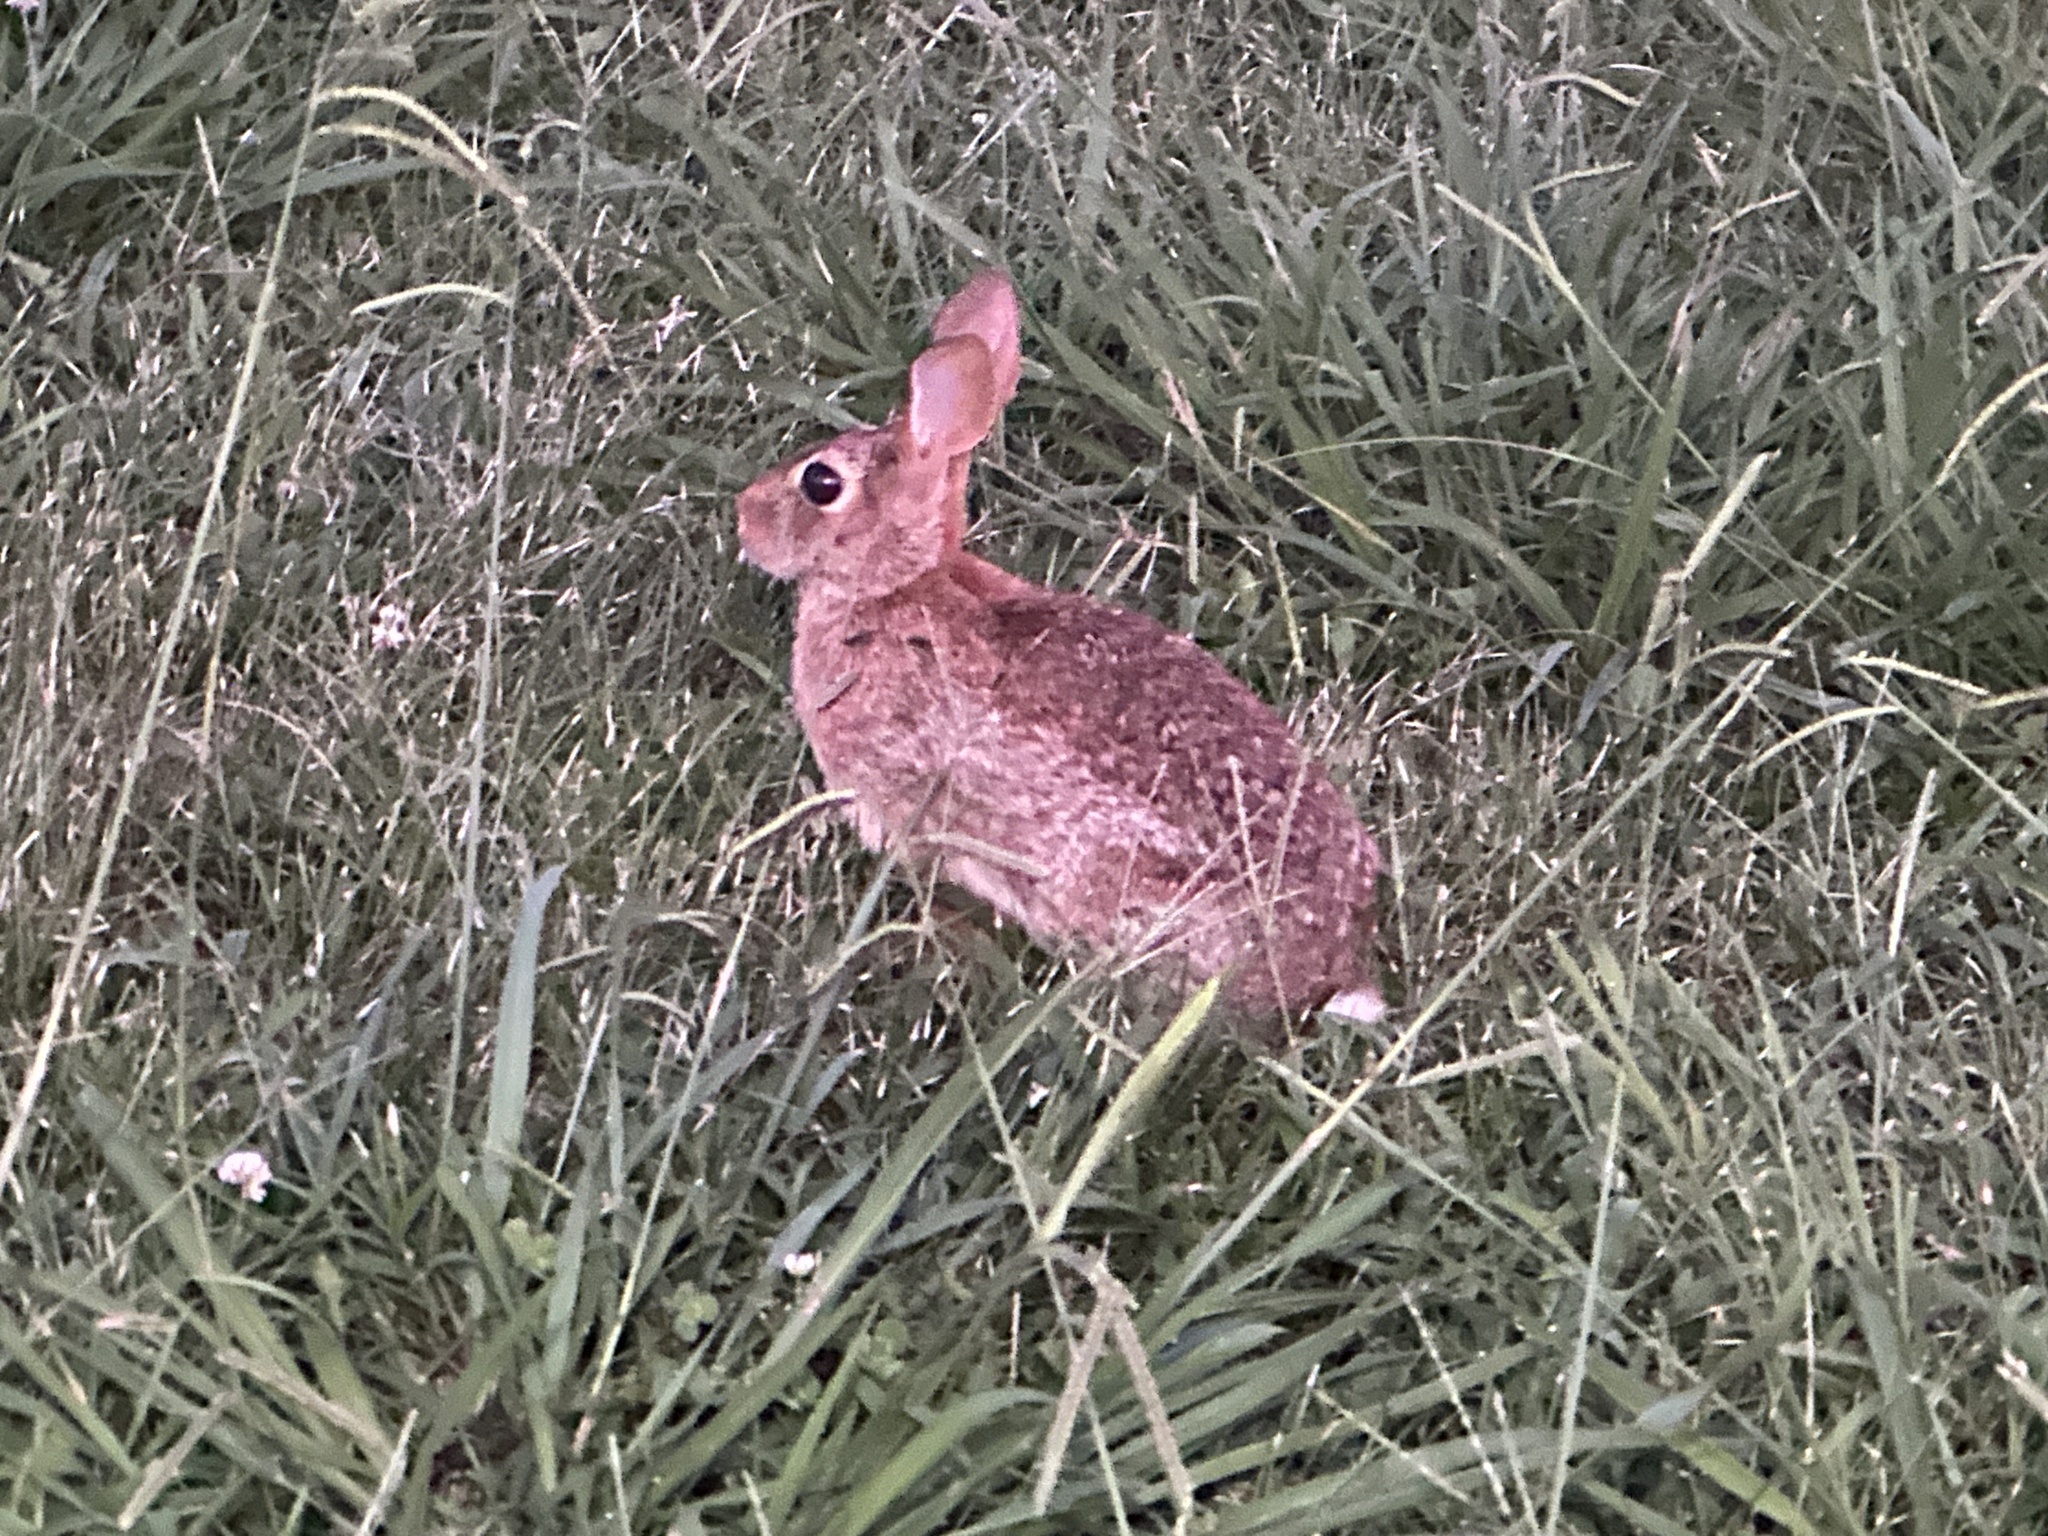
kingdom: Animalia
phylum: Chordata
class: Mammalia
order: Lagomorpha
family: Leporidae
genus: Sylvilagus
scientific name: Sylvilagus floridanus
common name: Eastern cottontail
